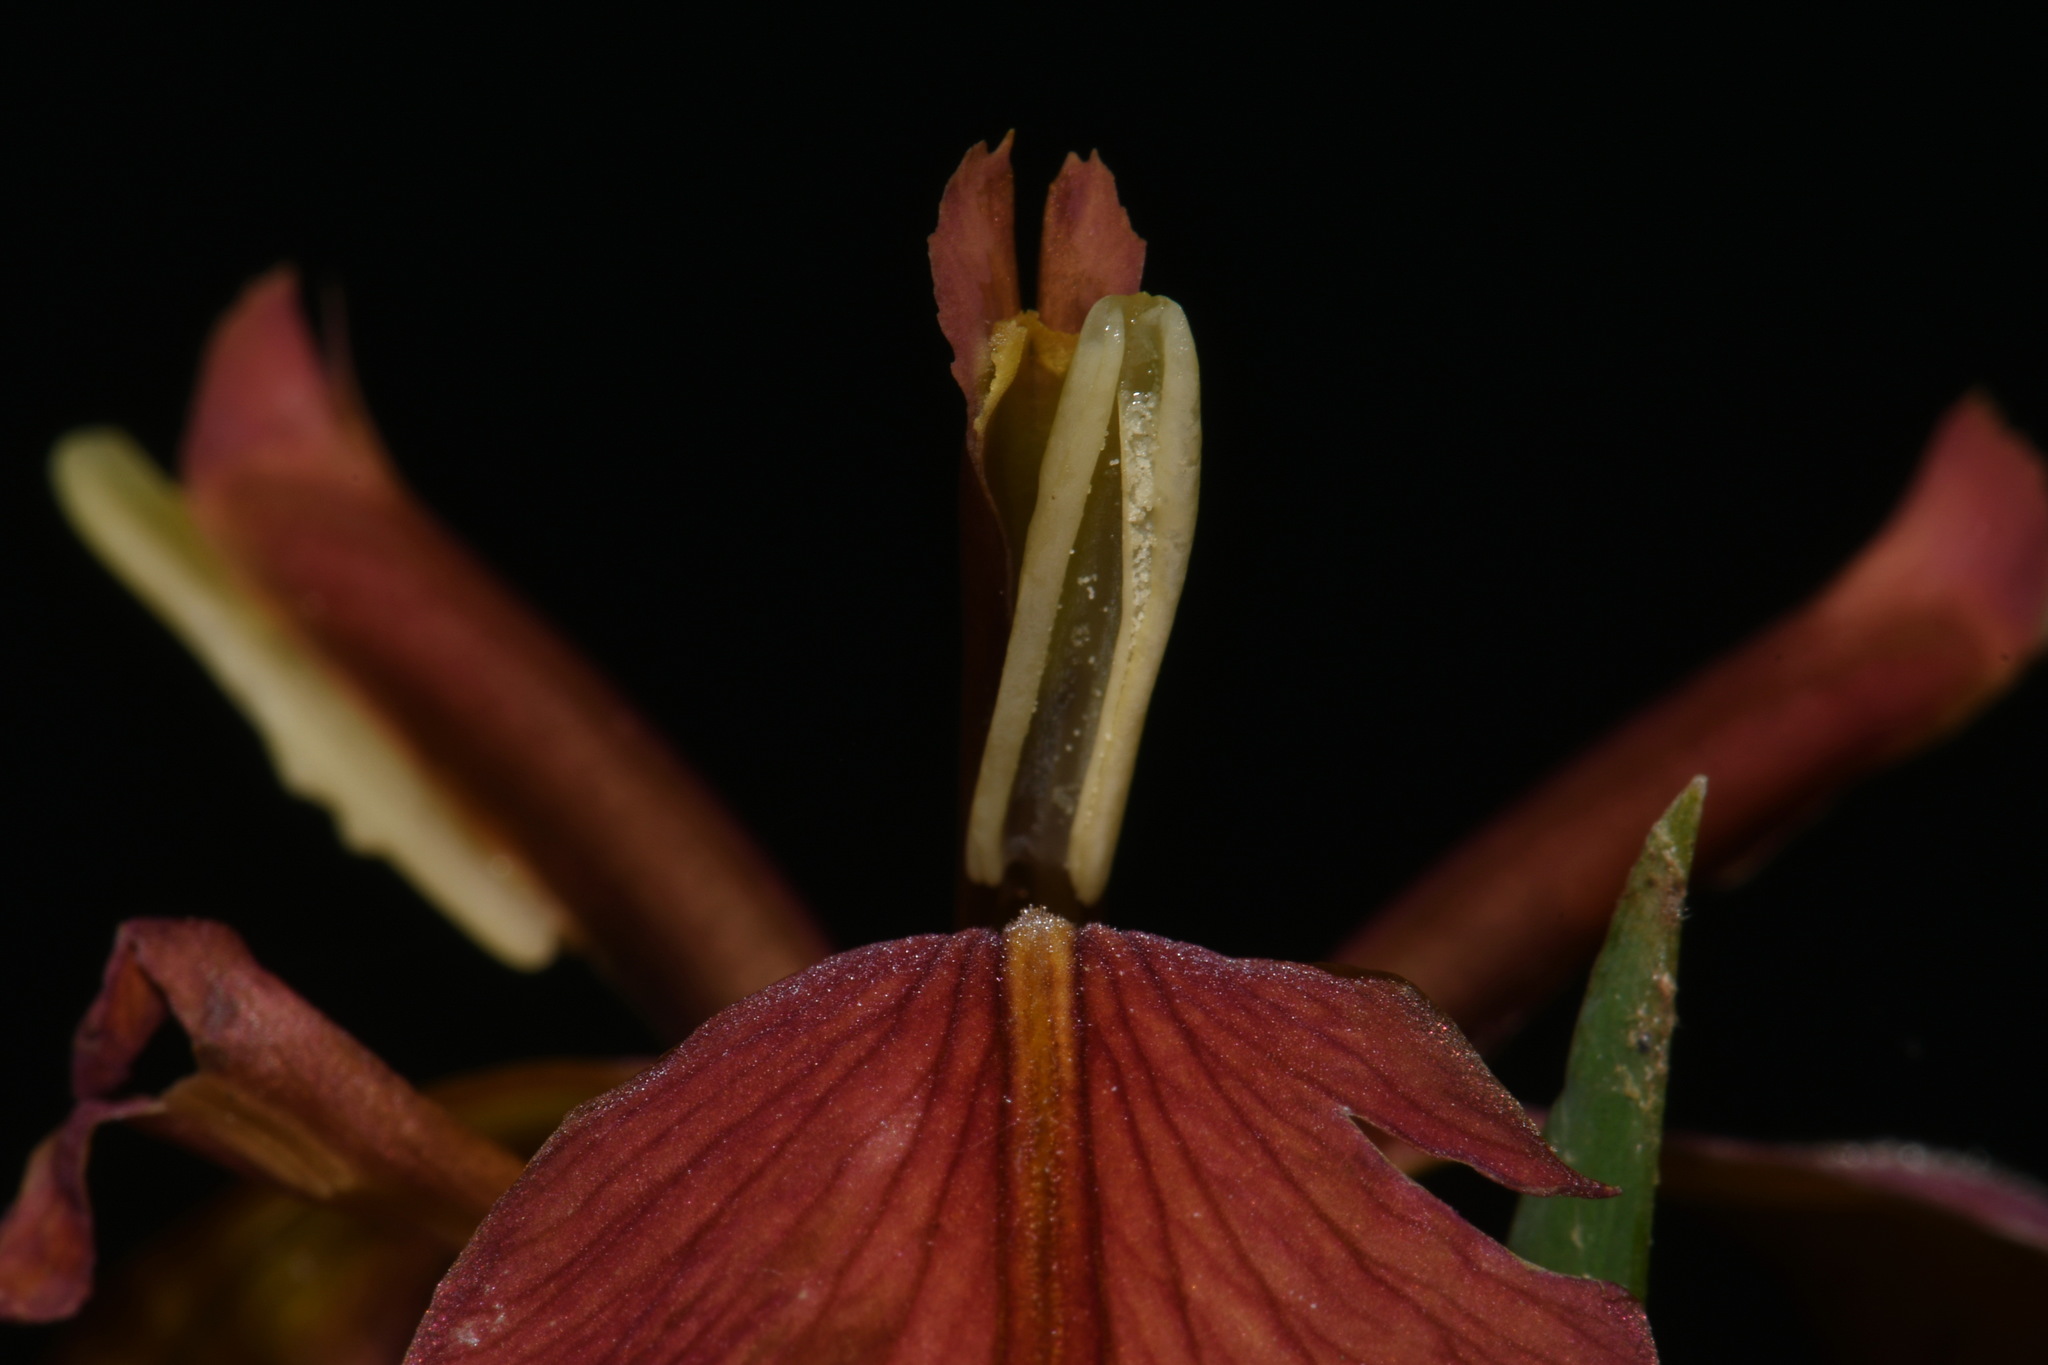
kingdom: Plantae
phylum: Tracheophyta
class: Liliopsida
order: Asparagales
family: Iridaceae
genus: Iris
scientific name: Iris fulva
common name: Copper iris
